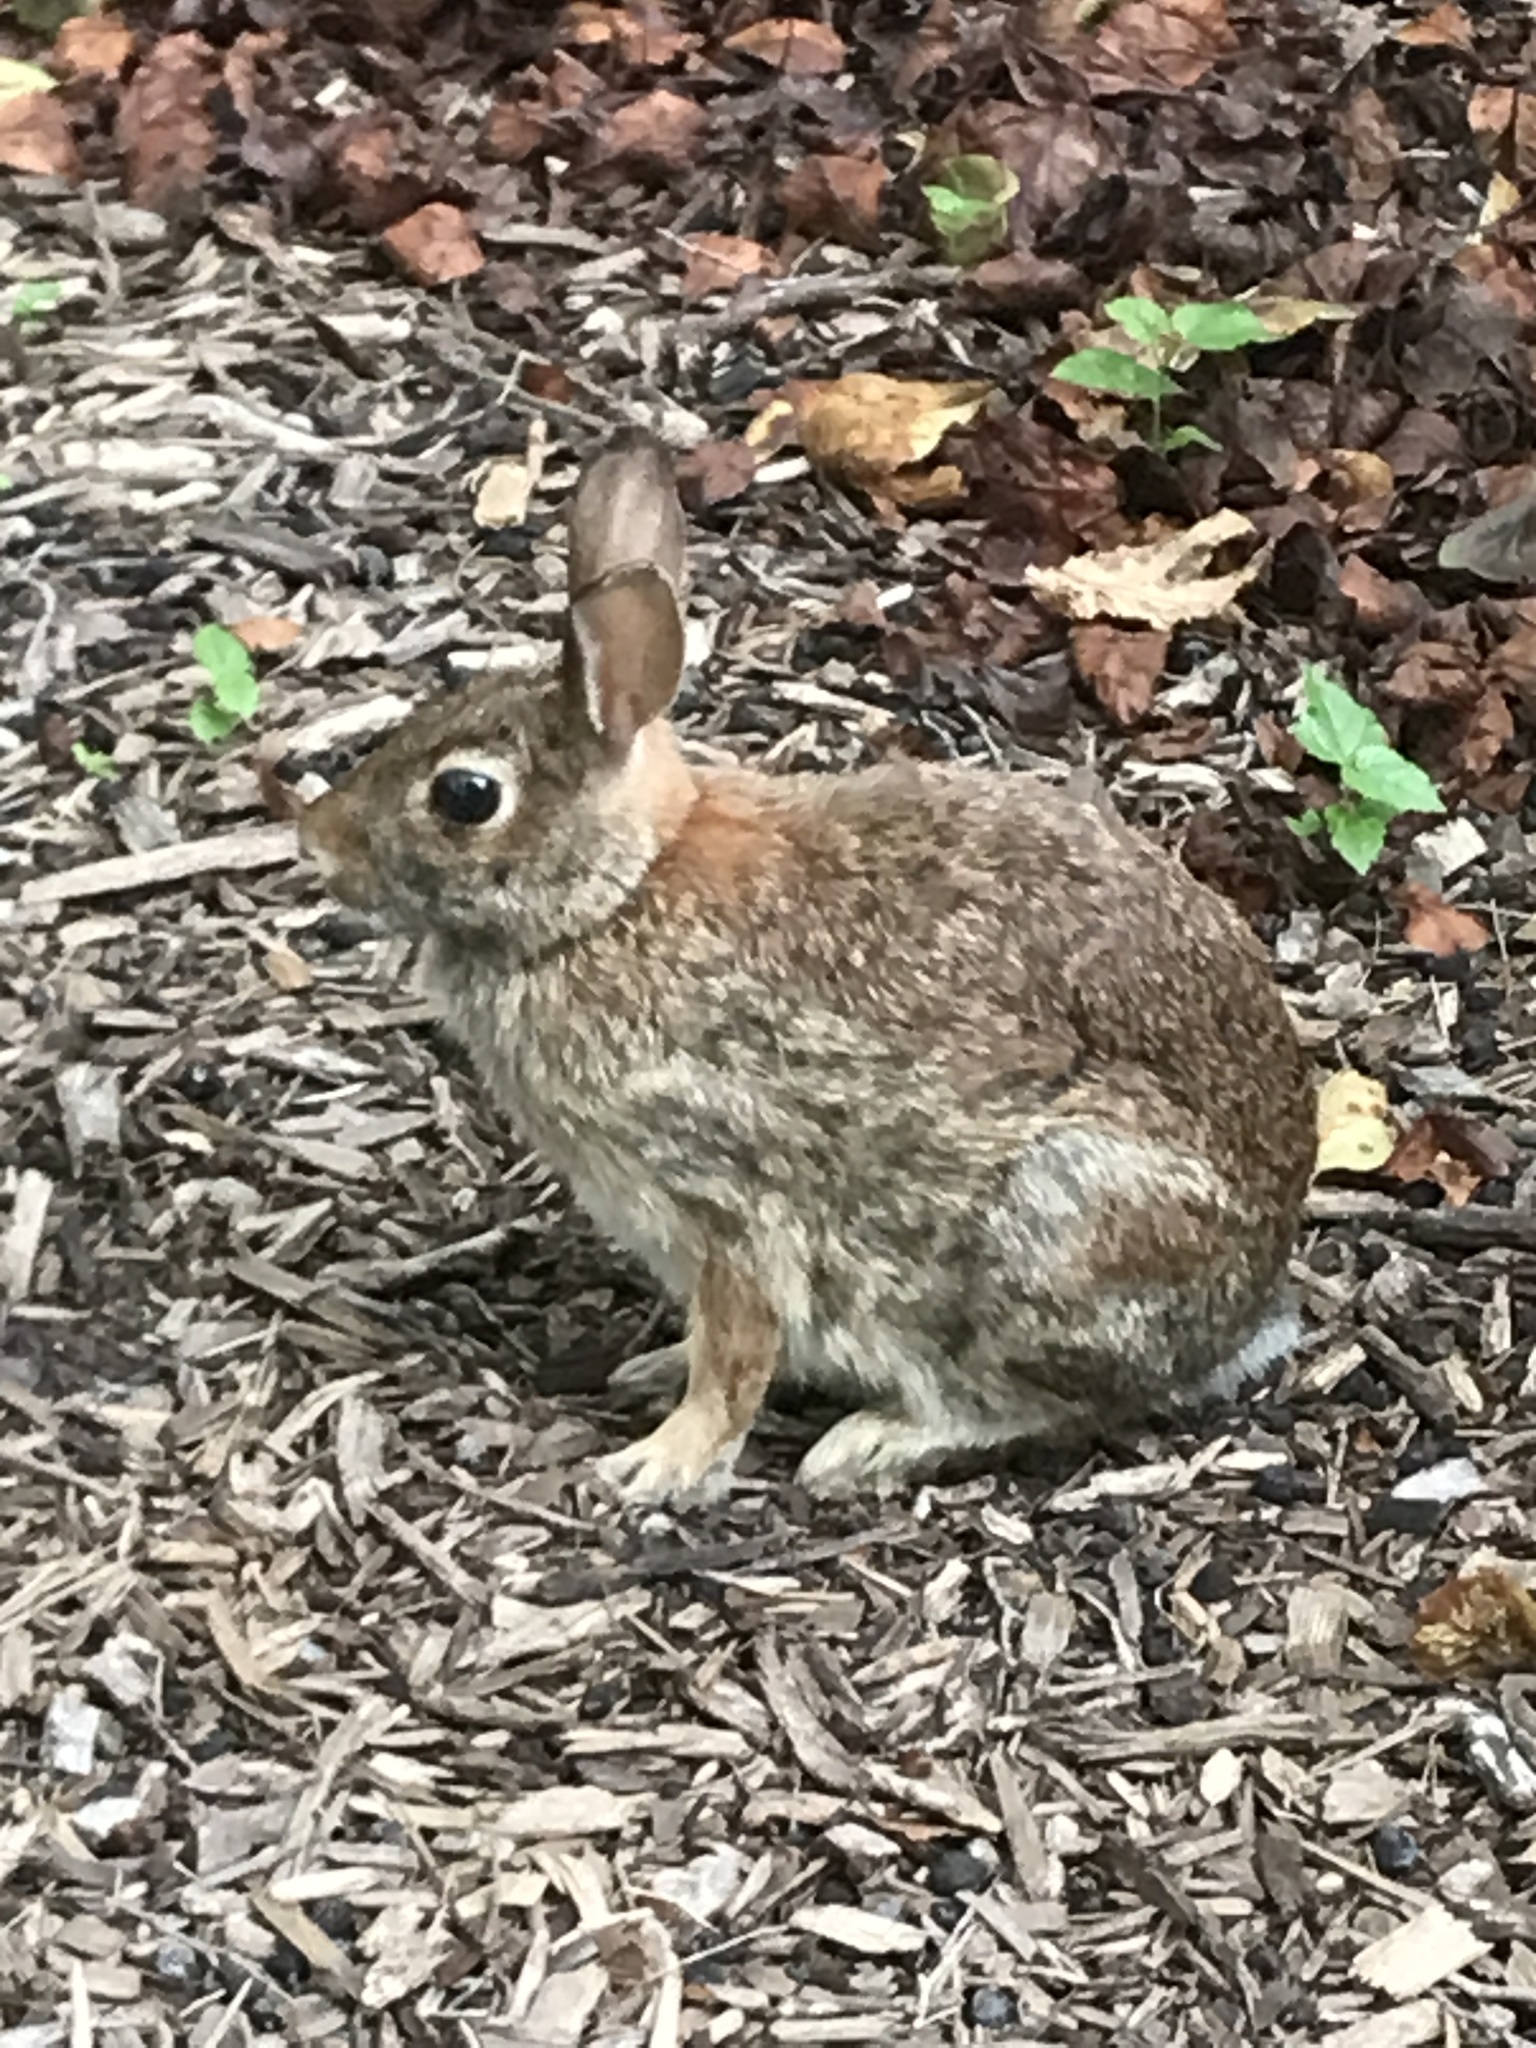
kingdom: Animalia
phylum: Chordata
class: Mammalia
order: Lagomorpha
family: Leporidae
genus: Sylvilagus
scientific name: Sylvilagus floridanus
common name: Eastern cottontail
